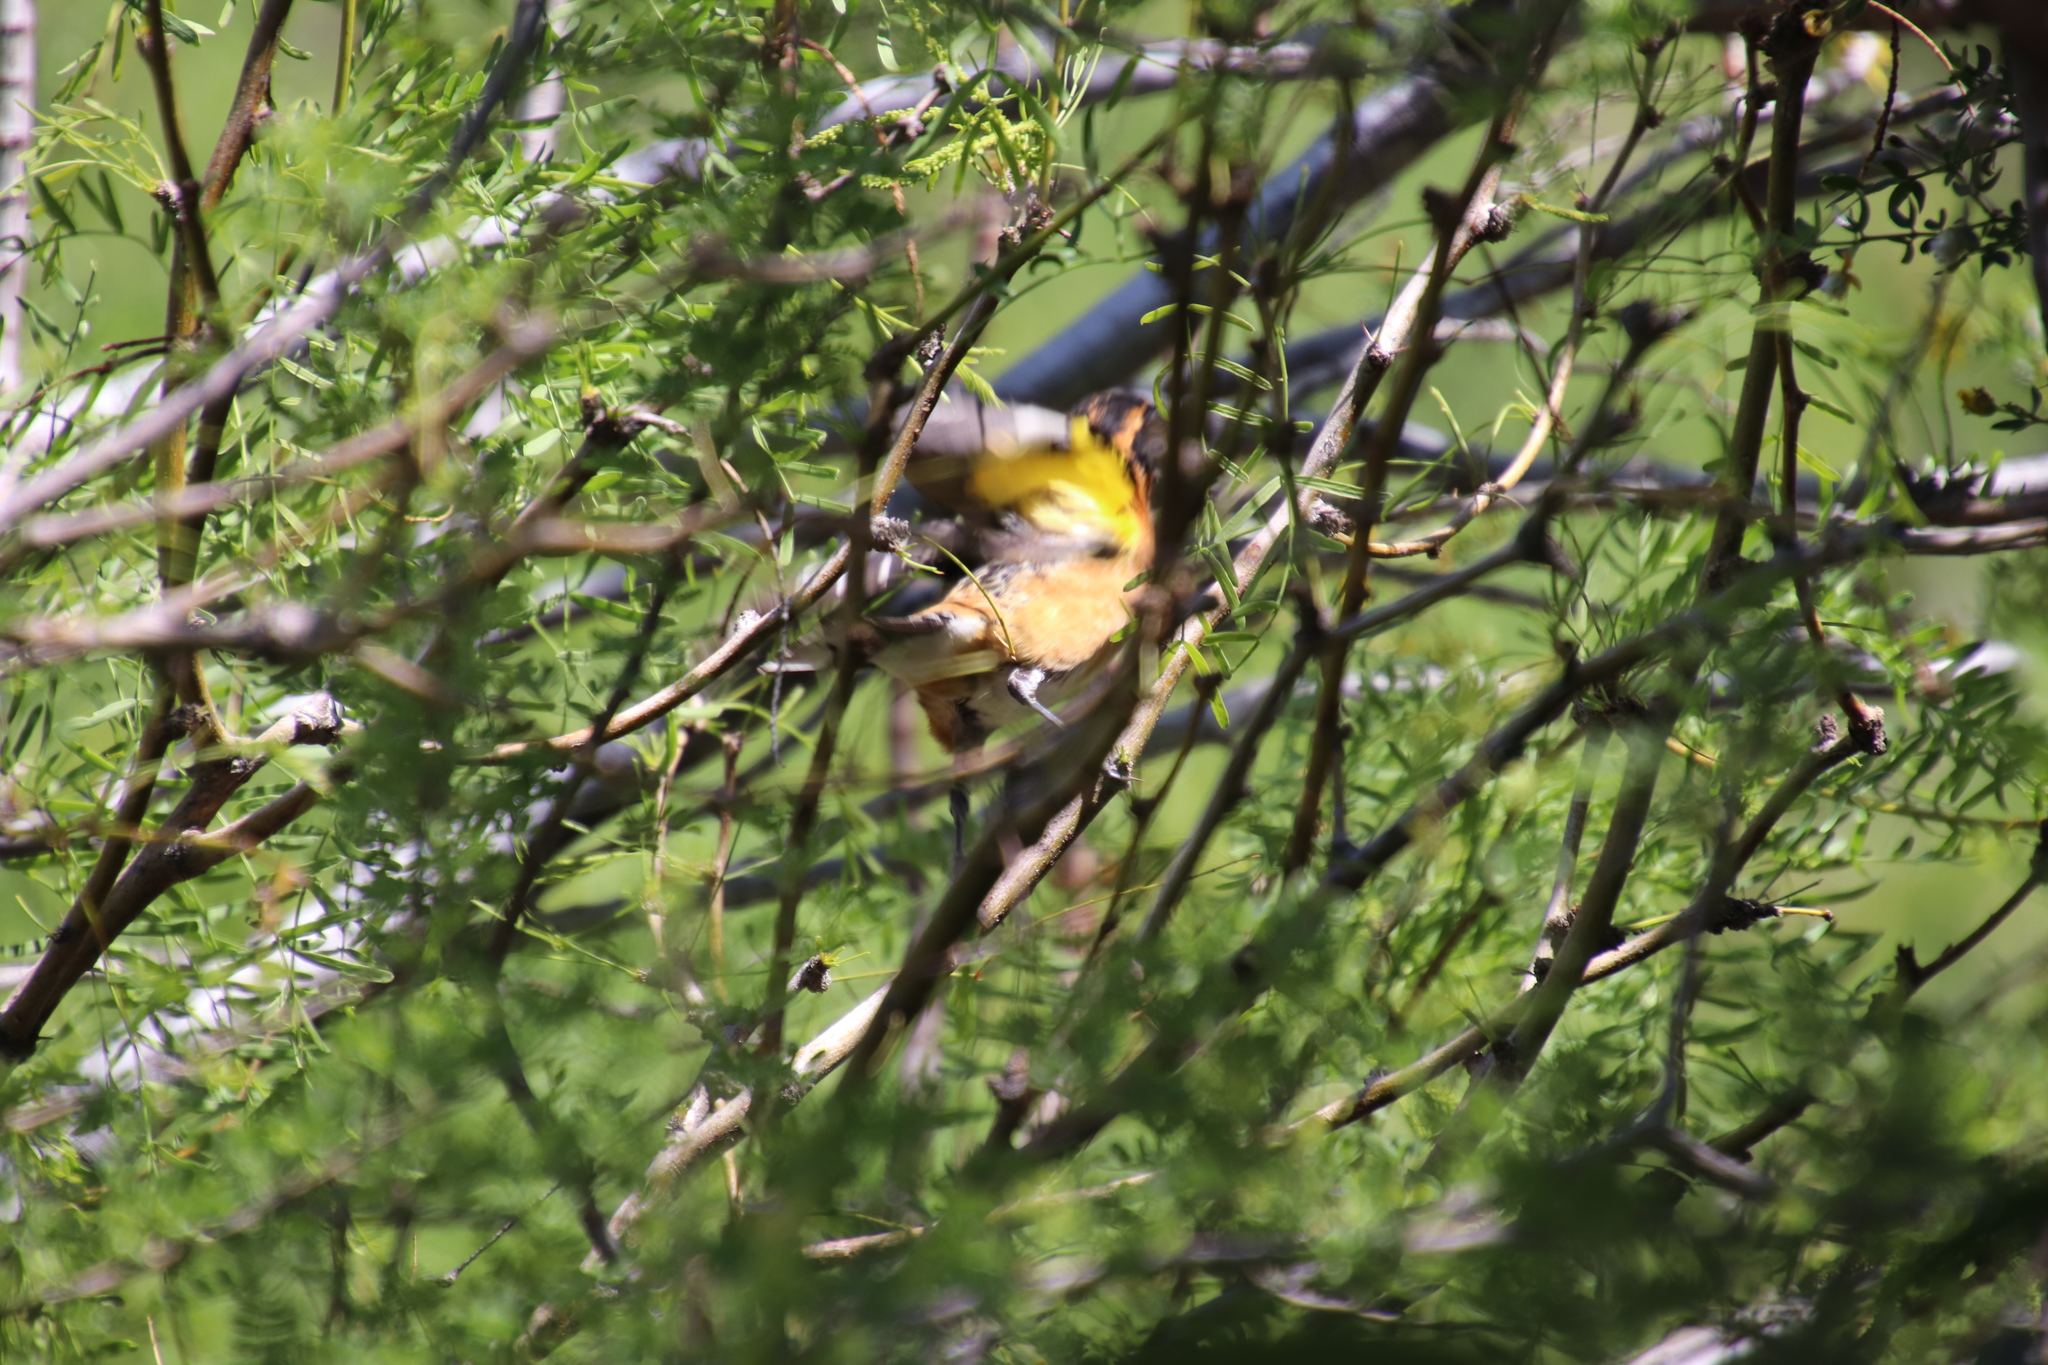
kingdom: Animalia
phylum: Chordata
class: Aves
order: Passeriformes
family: Cardinalidae
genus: Pheucticus
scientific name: Pheucticus melanocephalus
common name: Black-headed grosbeak
